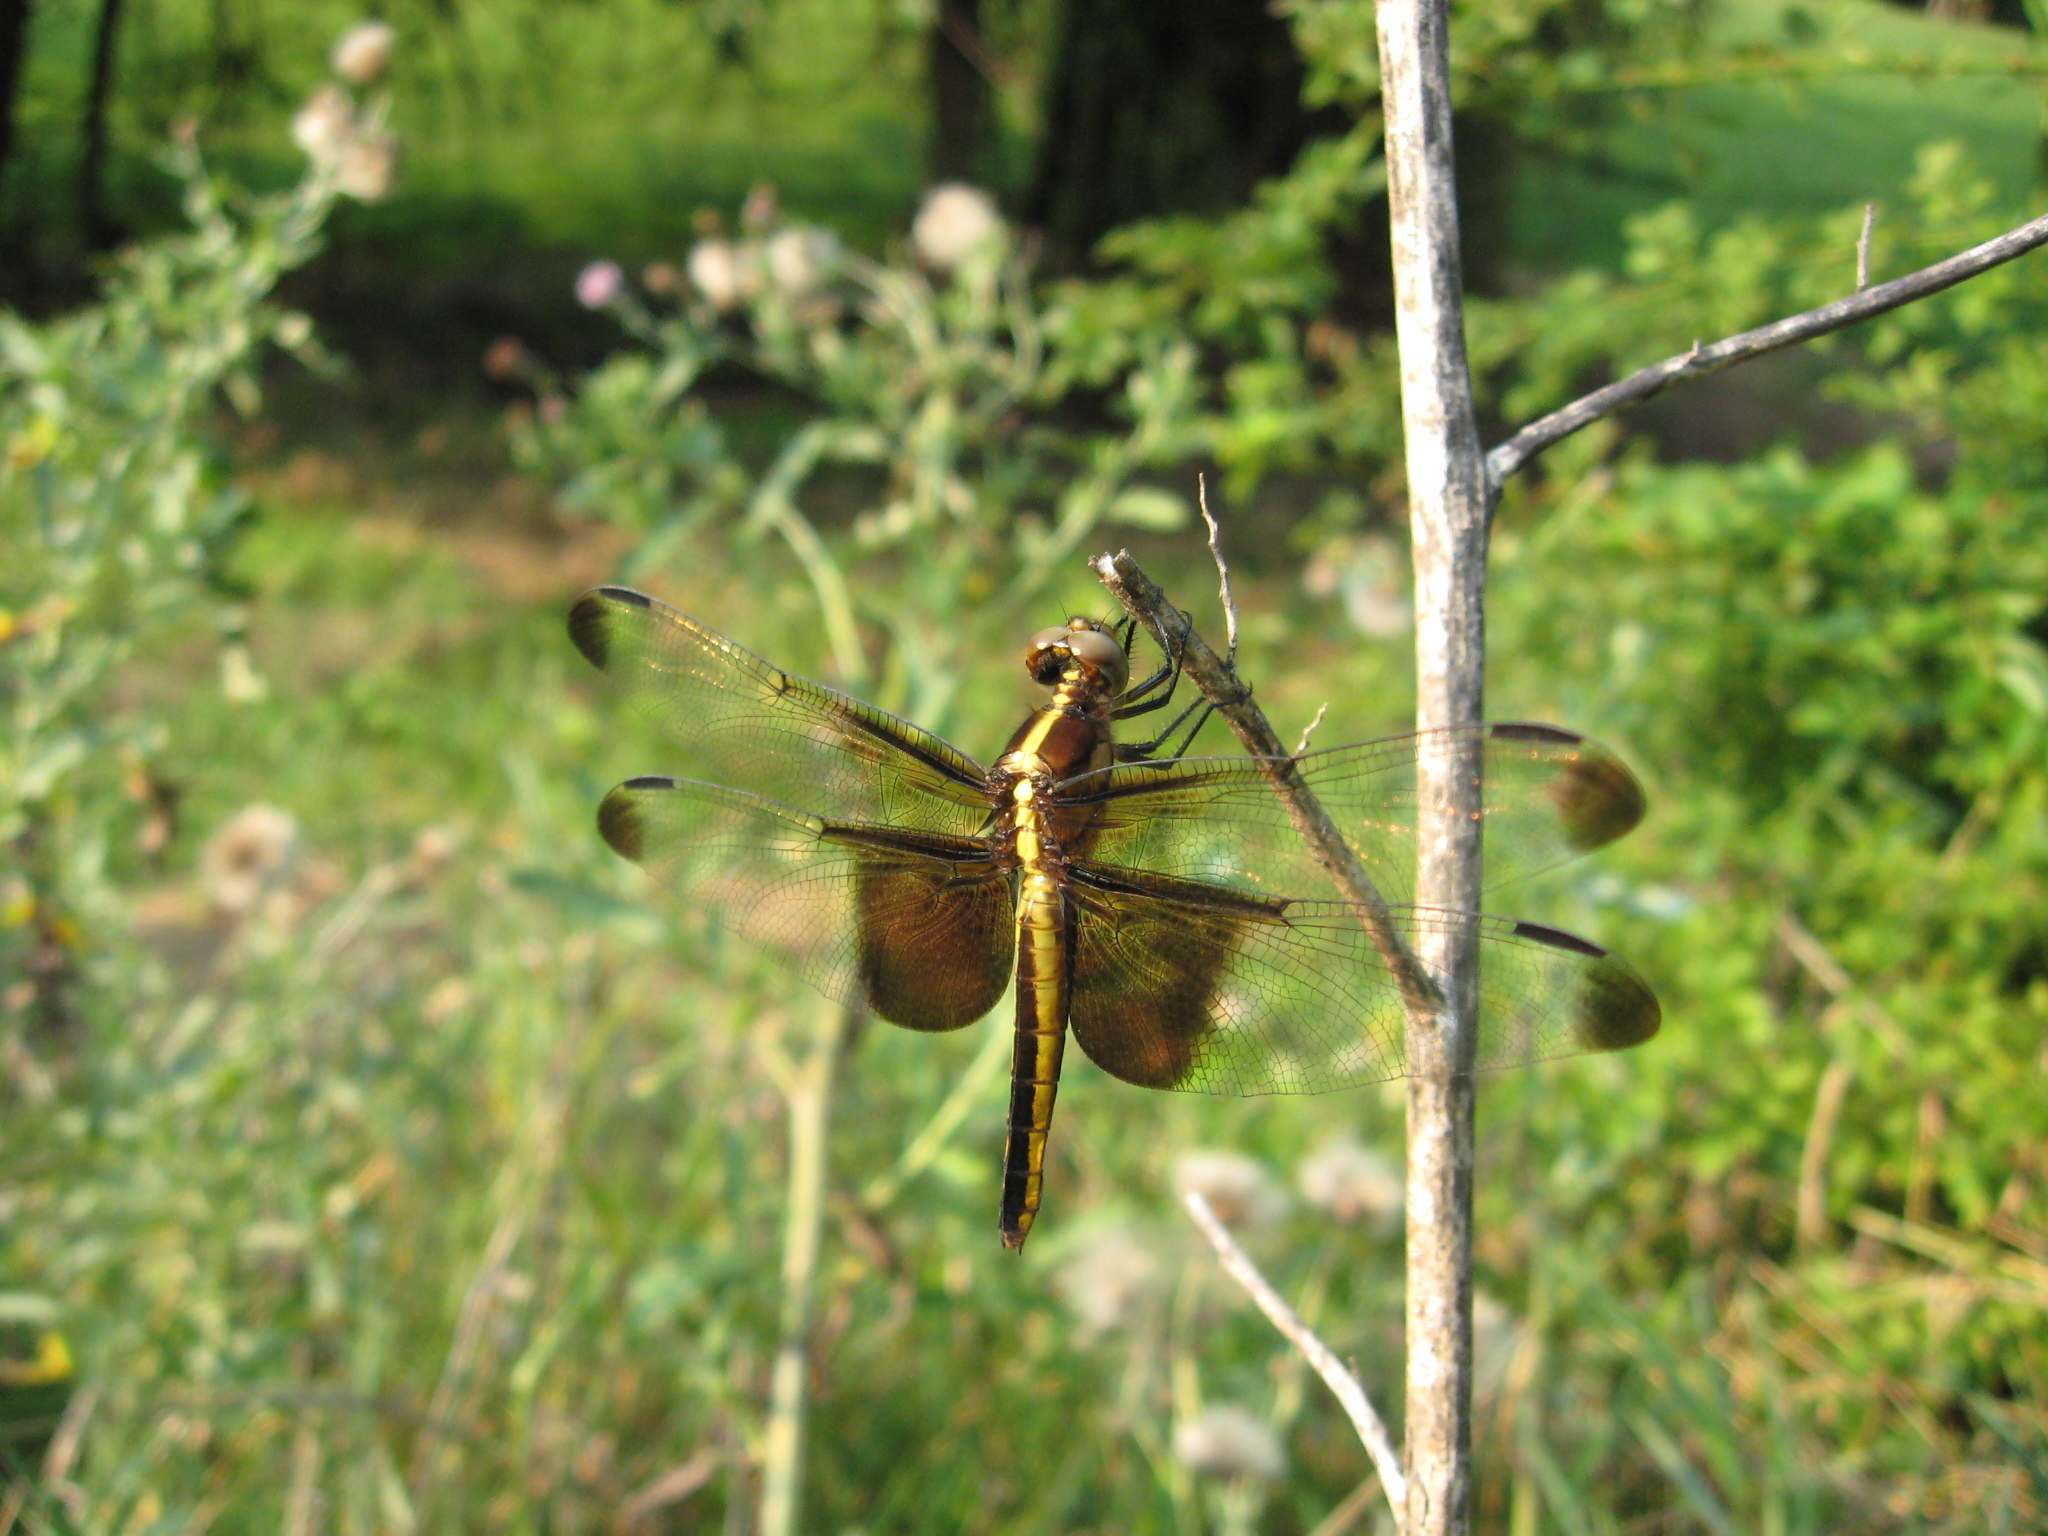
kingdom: Animalia
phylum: Arthropoda
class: Insecta
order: Odonata
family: Libellulidae
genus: Libellula
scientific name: Libellula luctuosa
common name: Widow skimmer
